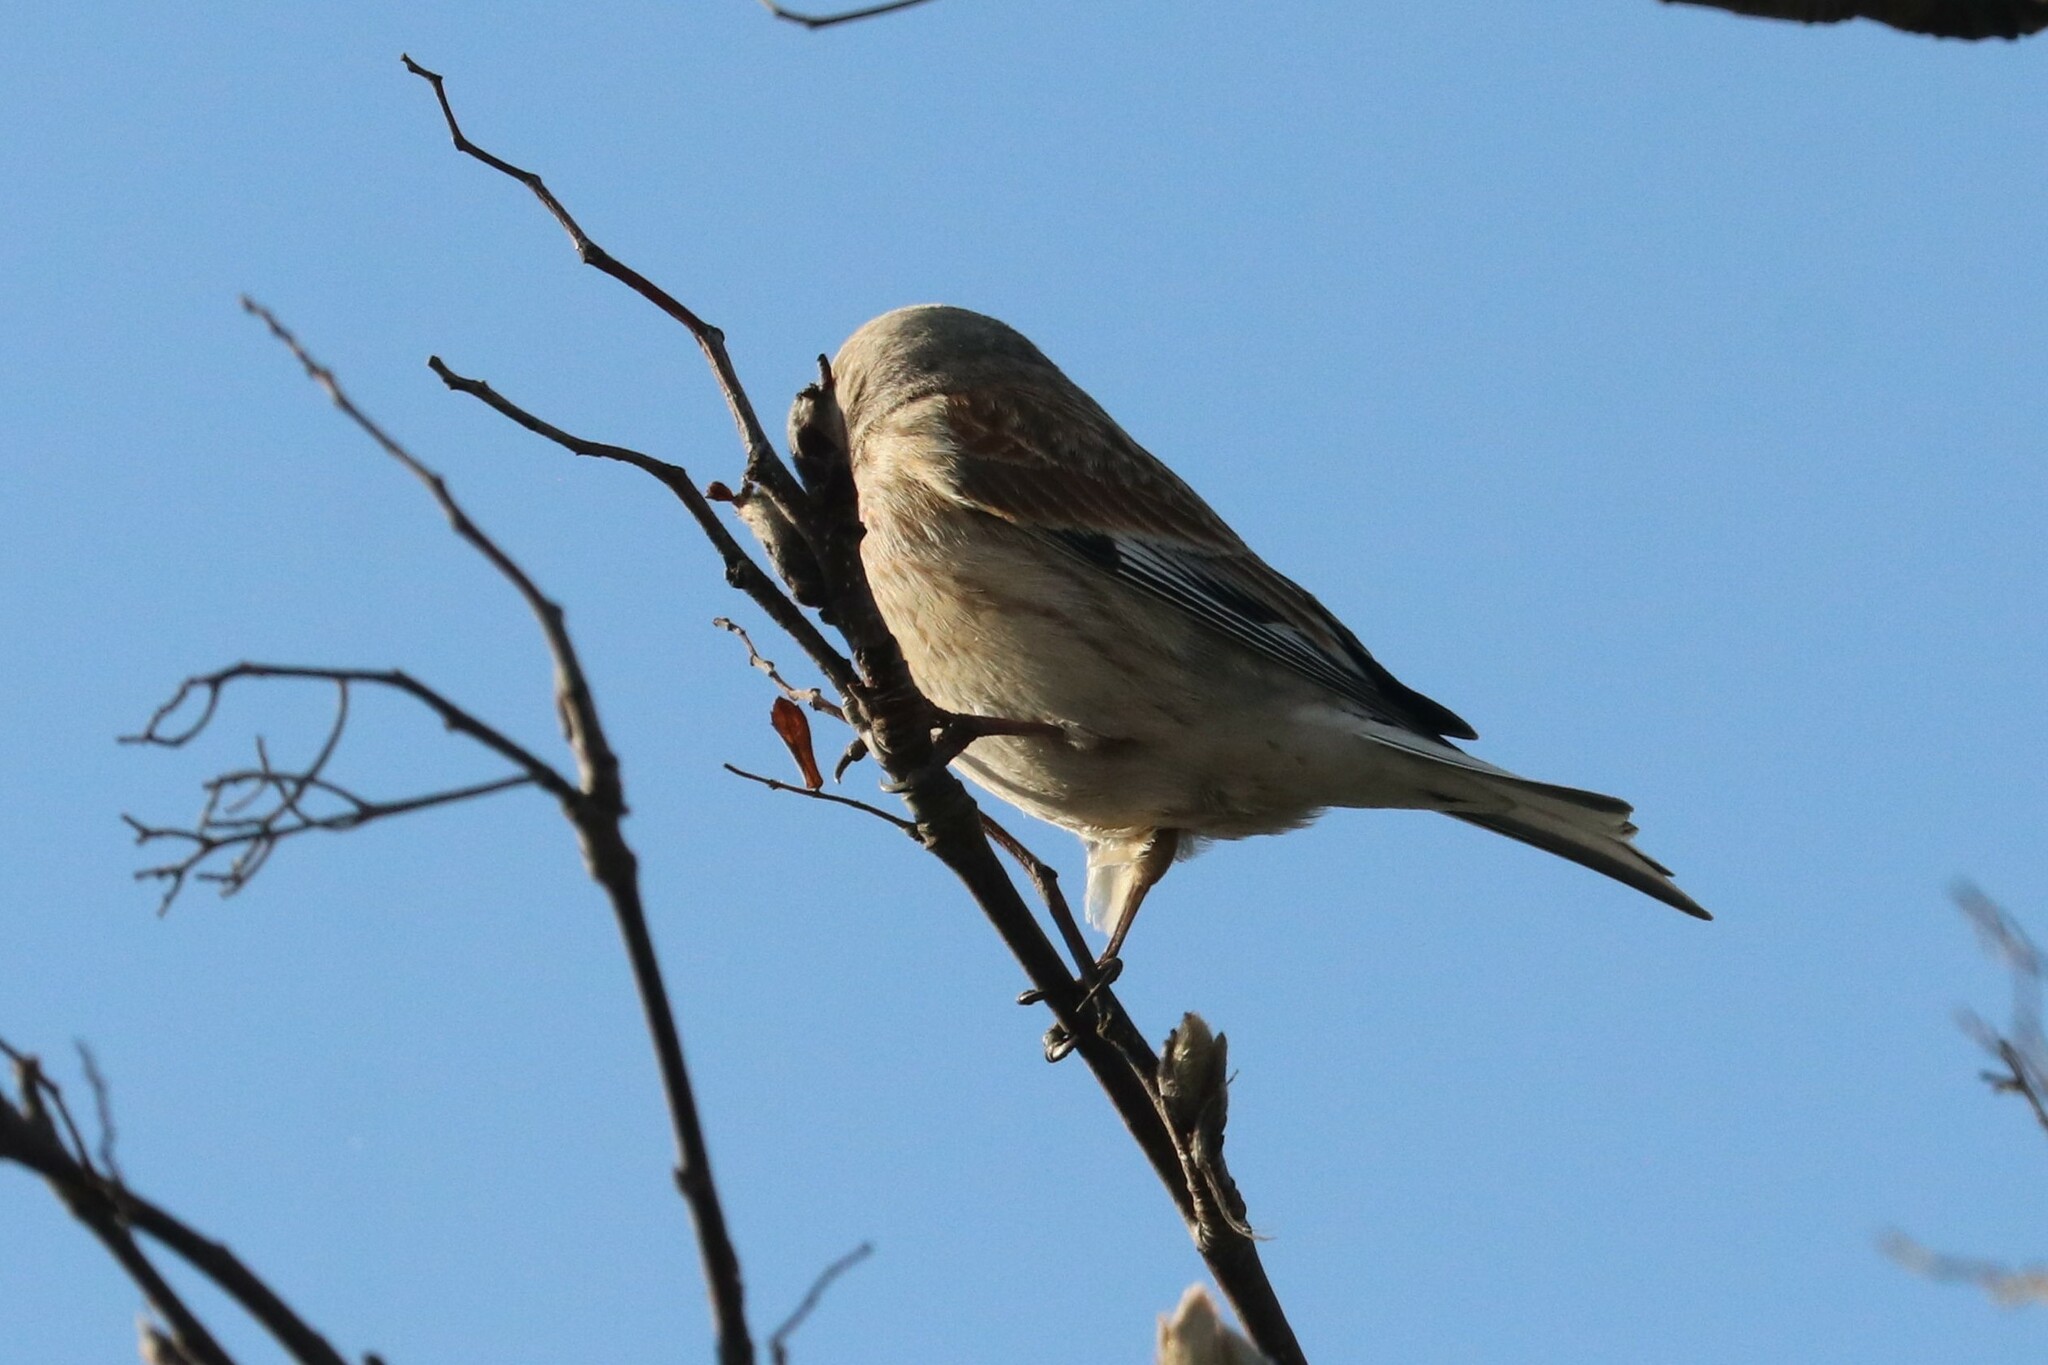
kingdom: Animalia
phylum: Chordata
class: Aves
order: Passeriformes
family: Fringillidae
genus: Linaria
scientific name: Linaria cannabina
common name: Common linnet
